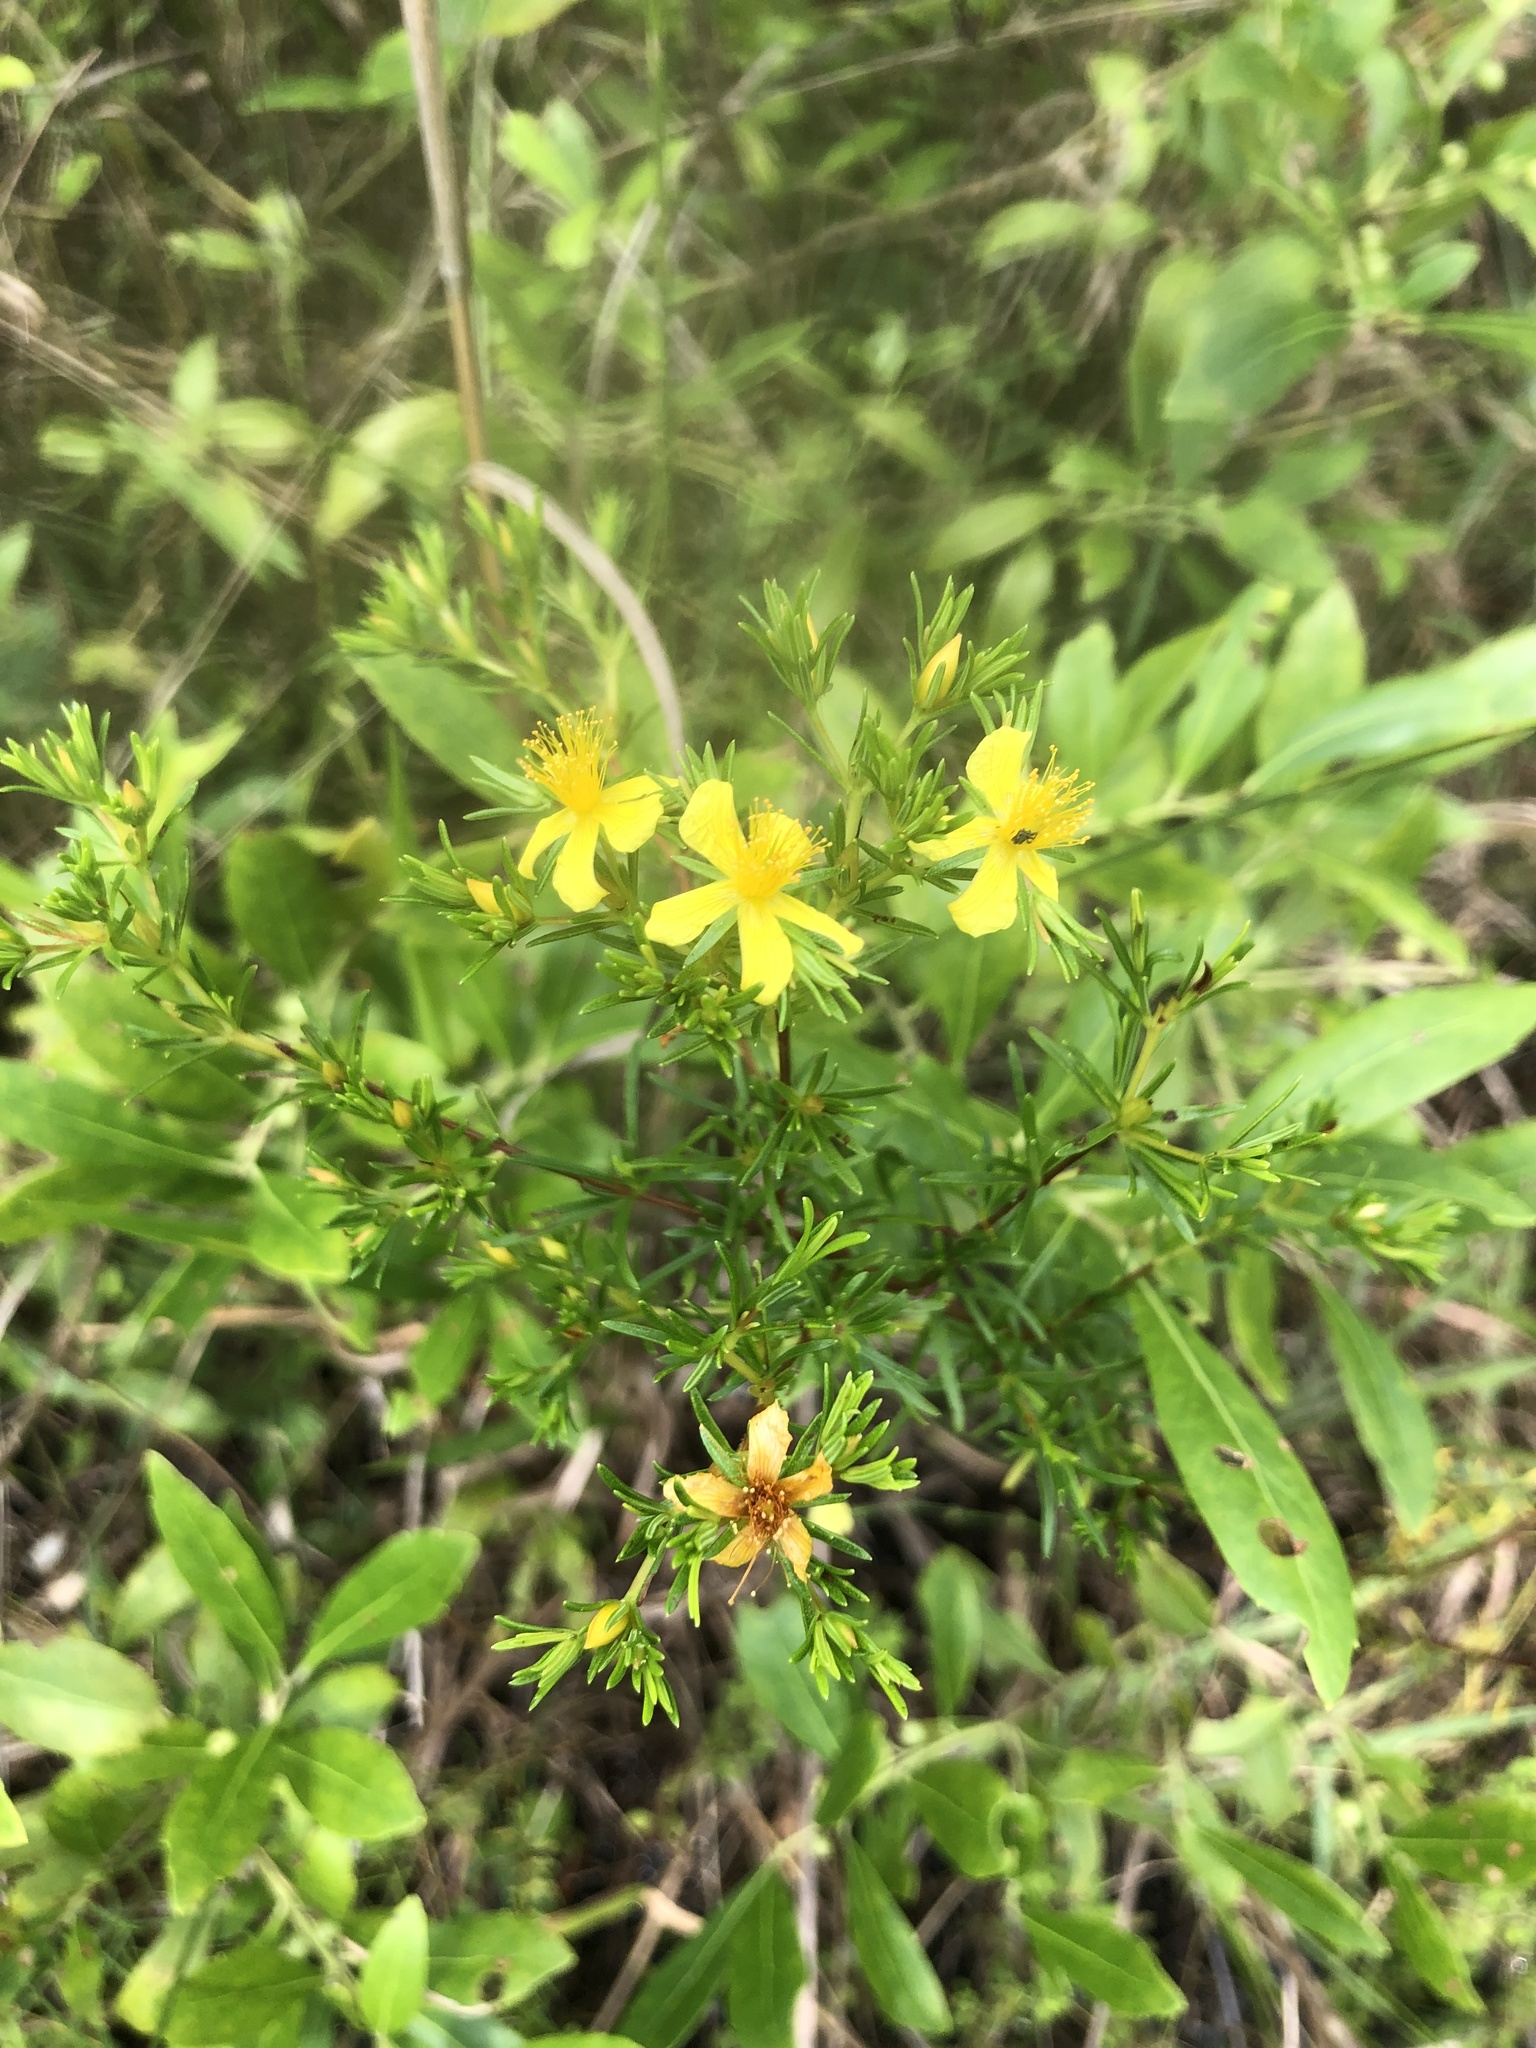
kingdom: Plantae
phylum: Tracheophyta
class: Magnoliopsida
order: Malpighiales
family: Hypericaceae
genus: Hypericum
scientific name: Hypericum fasciculatum
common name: Peelbark st. john's wort
